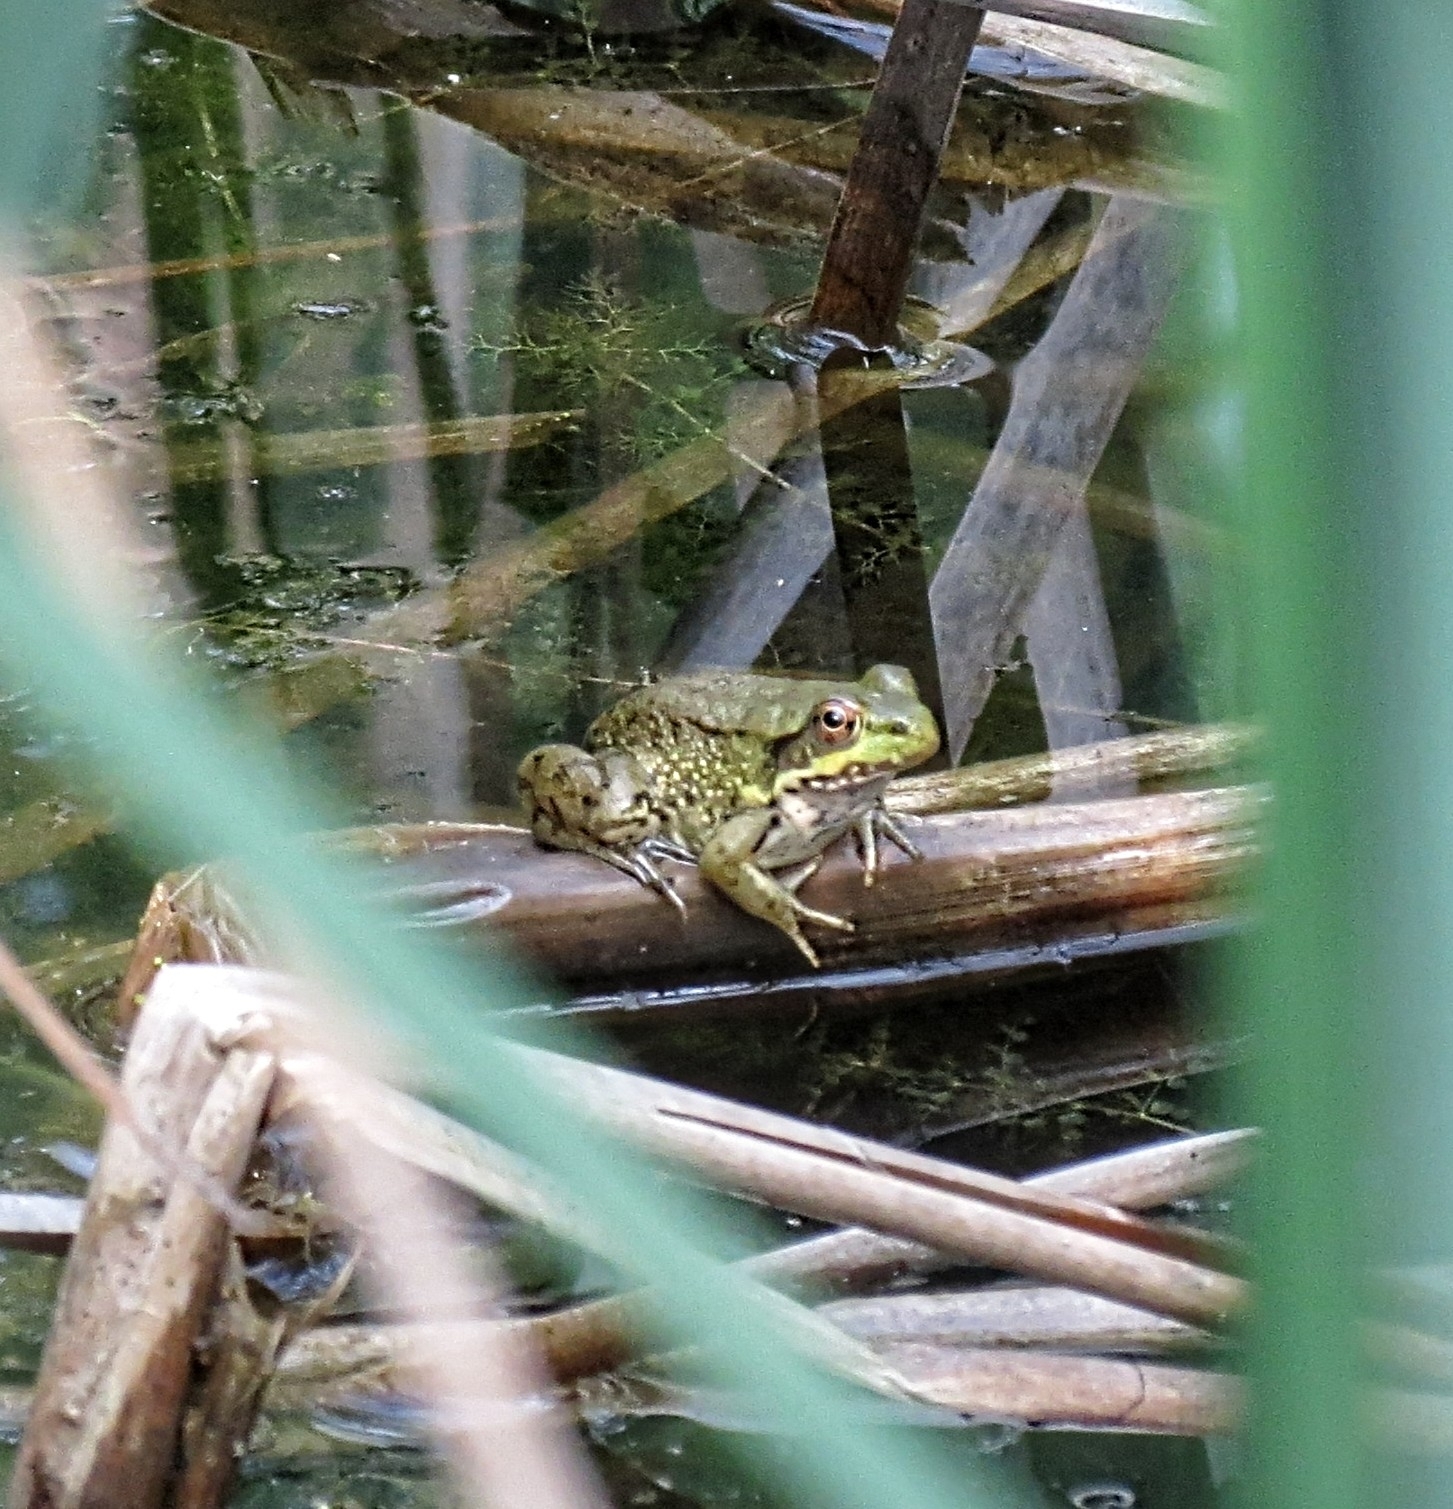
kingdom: Animalia
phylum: Chordata
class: Amphibia
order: Anura
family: Ranidae
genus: Lithobates
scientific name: Lithobates clamitans
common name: Green frog
